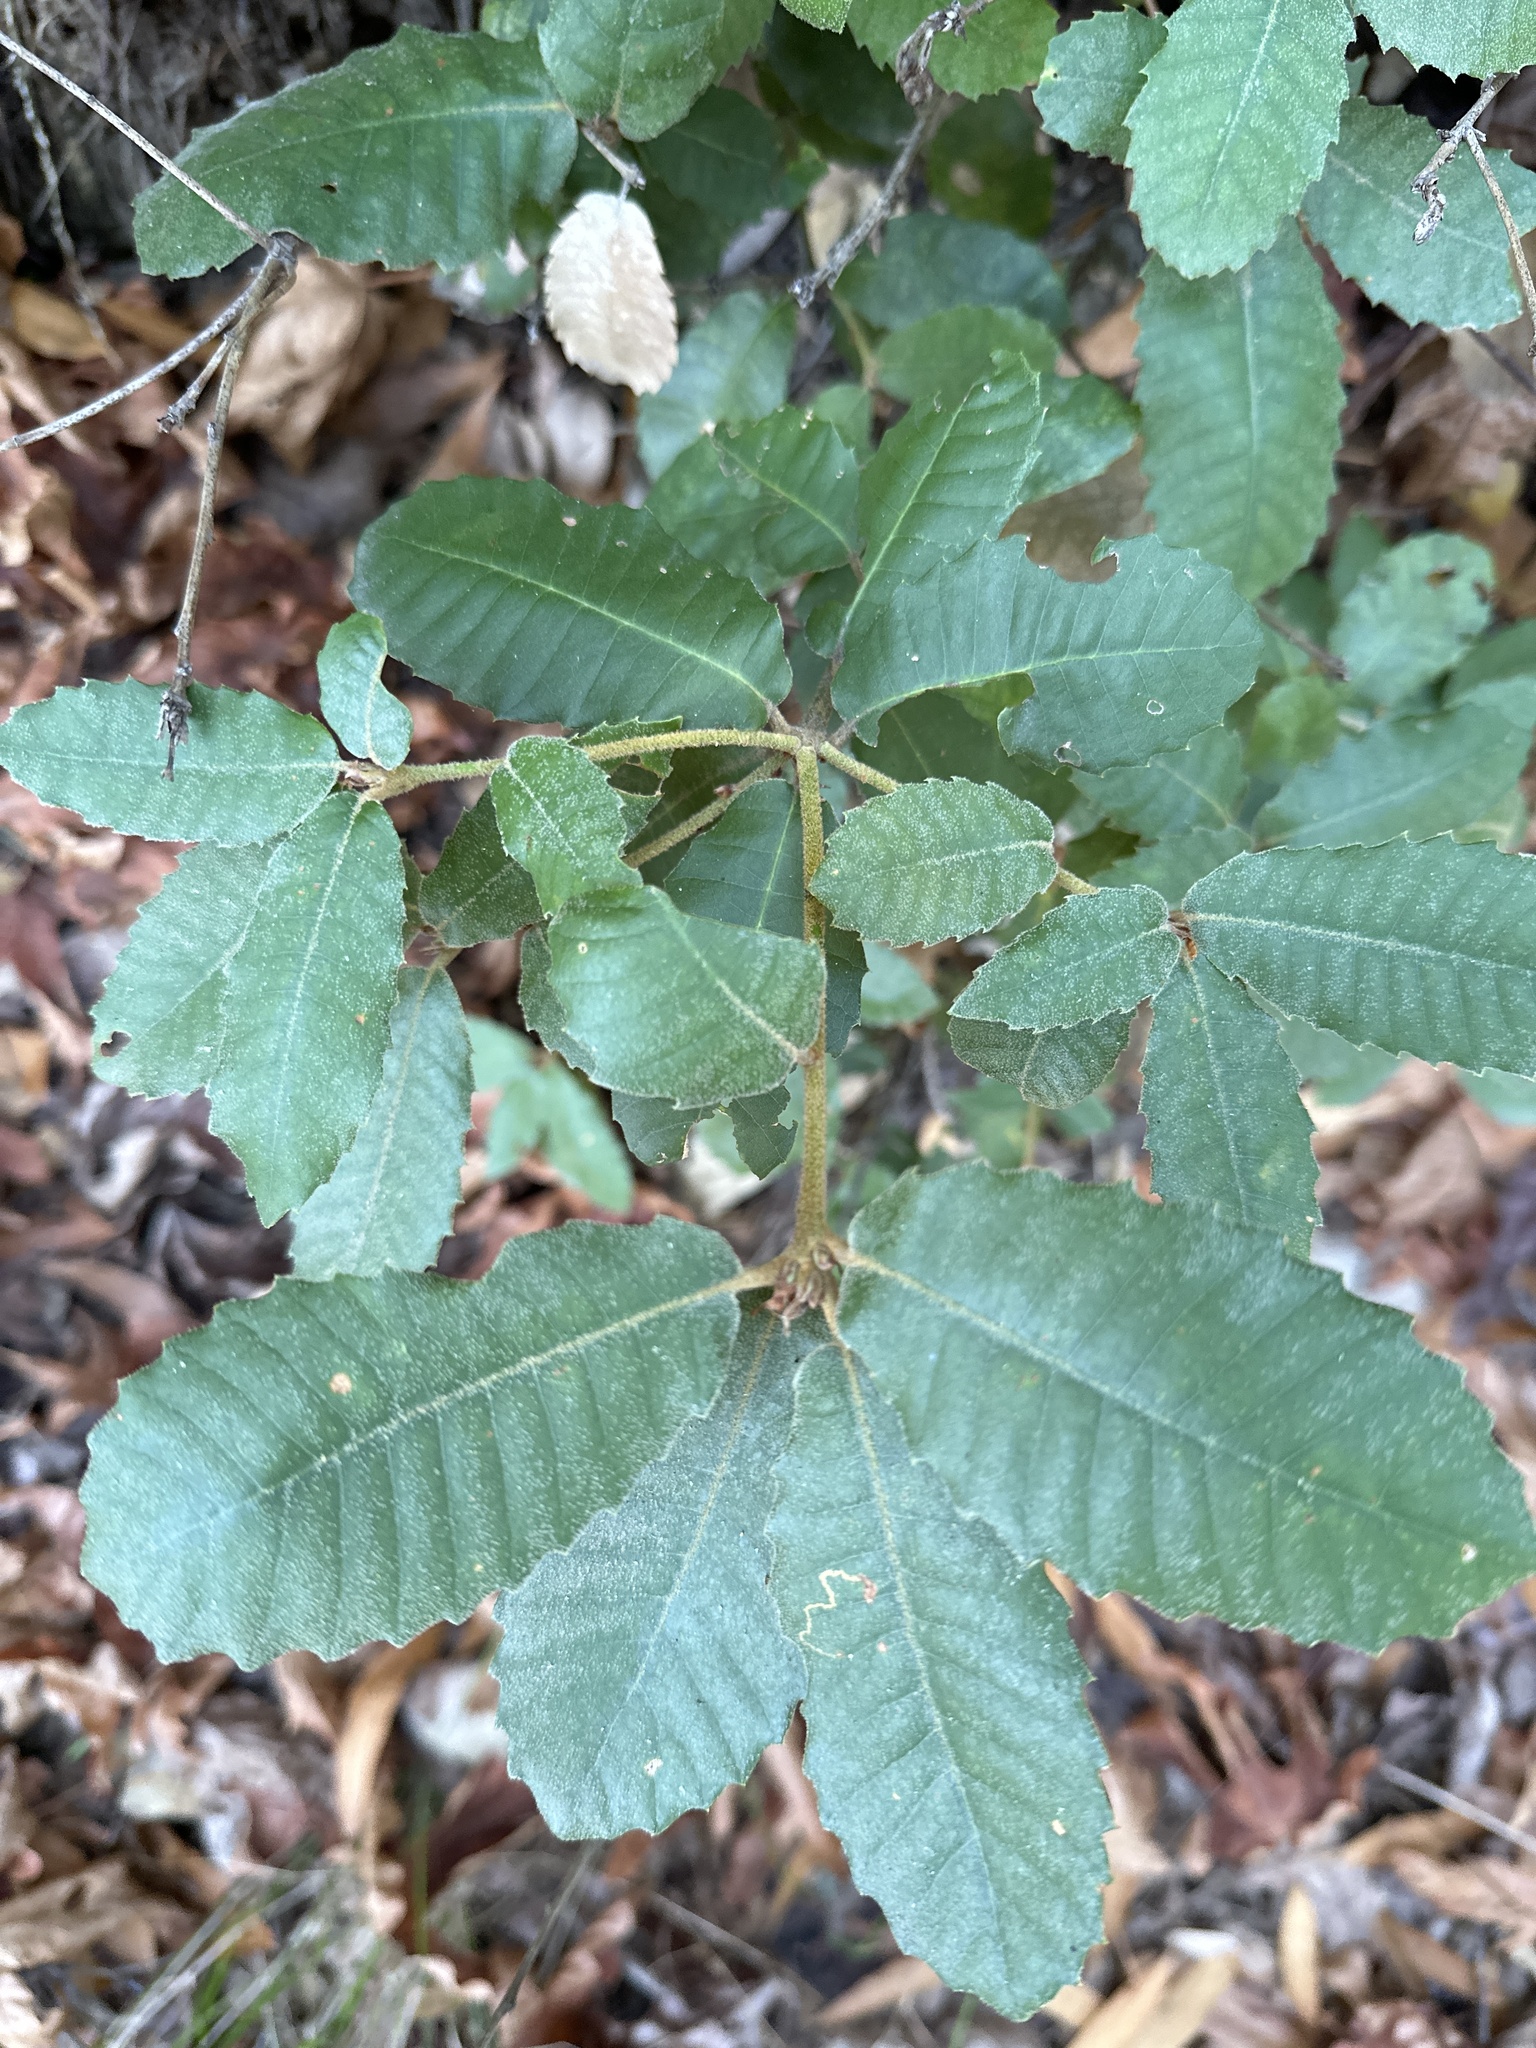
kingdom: Plantae
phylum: Tracheophyta
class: Magnoliopsida
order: Fagales
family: Fagaceae
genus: Notholithocarpus
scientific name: Notholithocarpus densiflorus
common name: Tan bark oak
